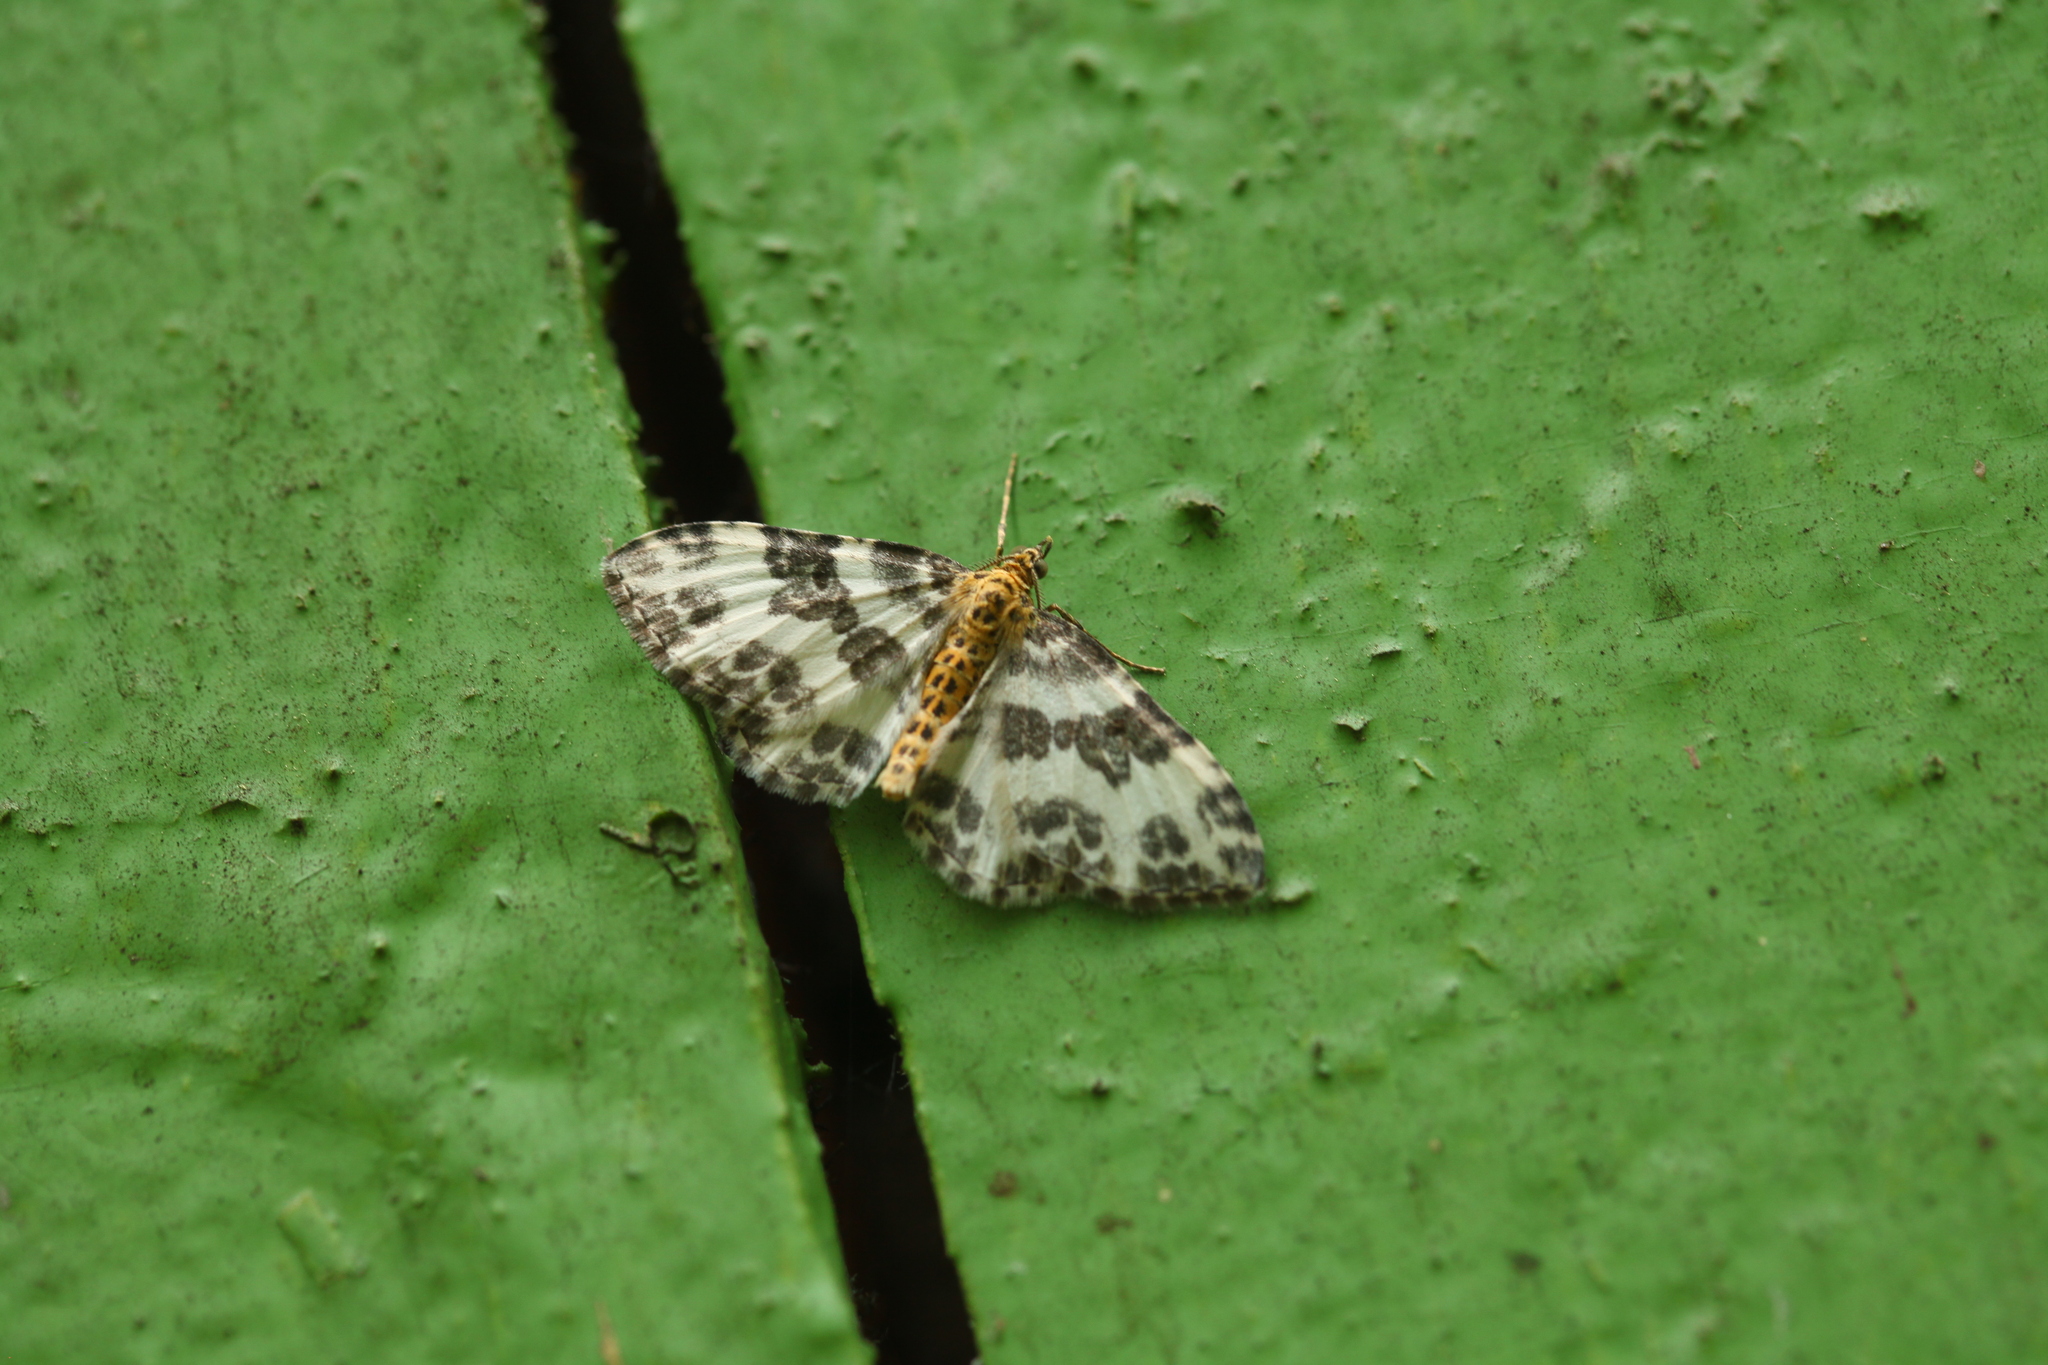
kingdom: Animalia
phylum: Arthropoda
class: Insecta
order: Lepidoptera
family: Geometridae
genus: Rheumaptera
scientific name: Rheumaptera flavipes
